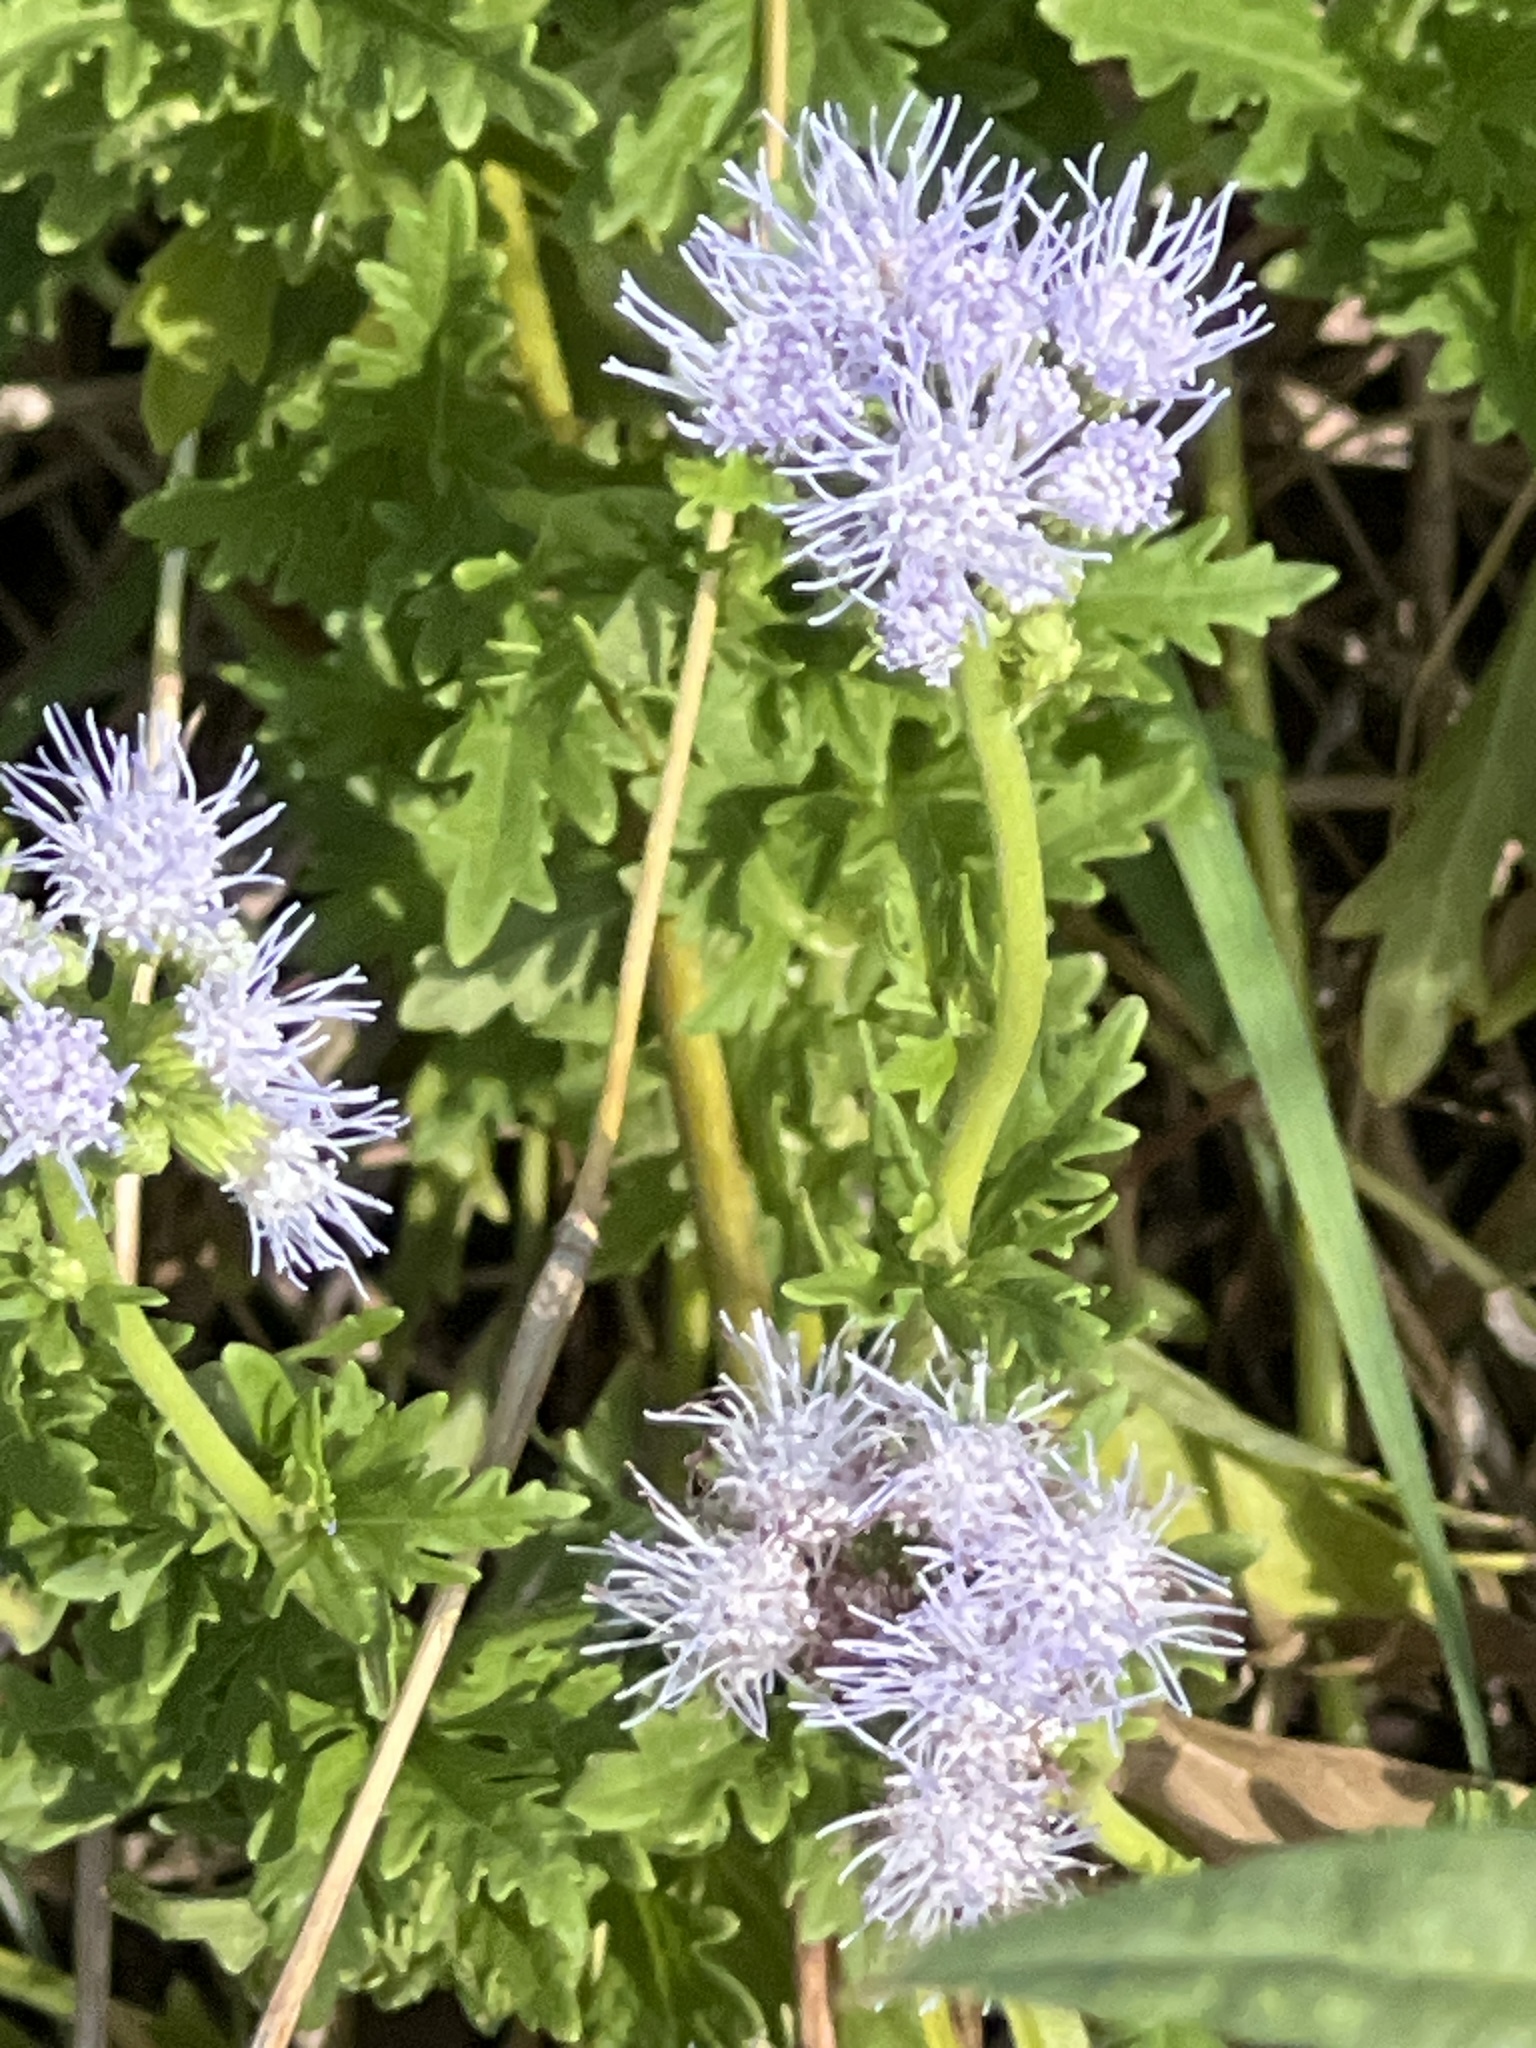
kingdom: Plantae
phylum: Tracheophyta
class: Magnoliopsida
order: Asterales
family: Asteraceae
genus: Conoclinium
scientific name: Conoclinium dissectum
